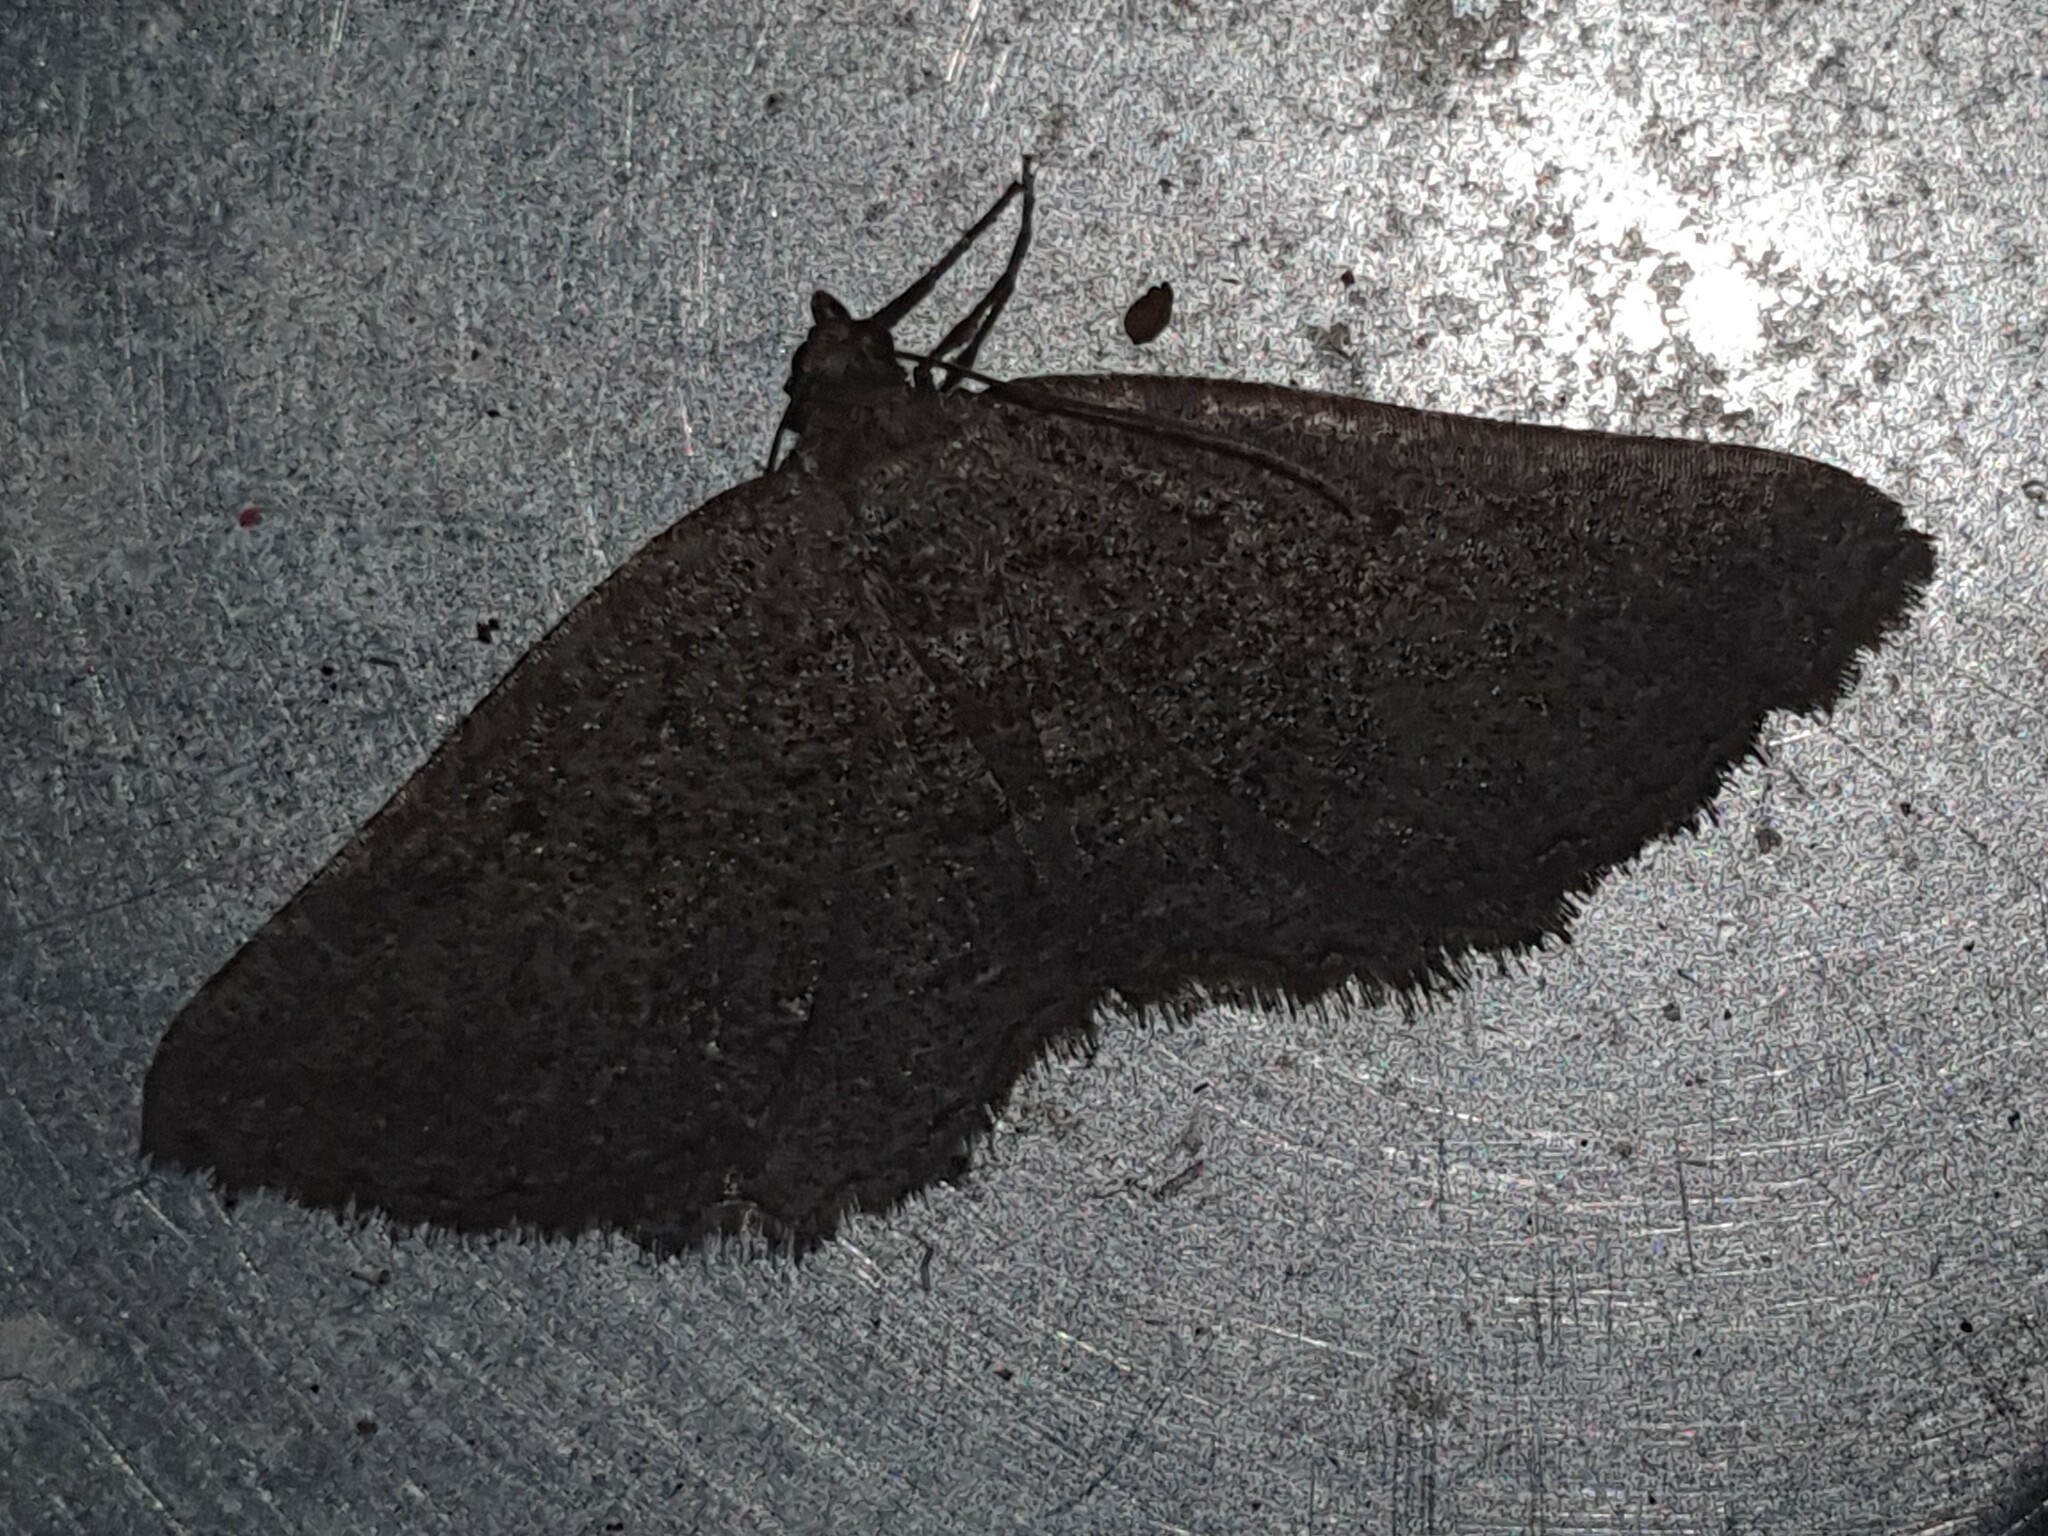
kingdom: Animalia
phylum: Arthropoda
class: Insecta
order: Lepidoptera
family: Geometridae
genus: Rhoptria
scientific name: Rhoptria asperaria
